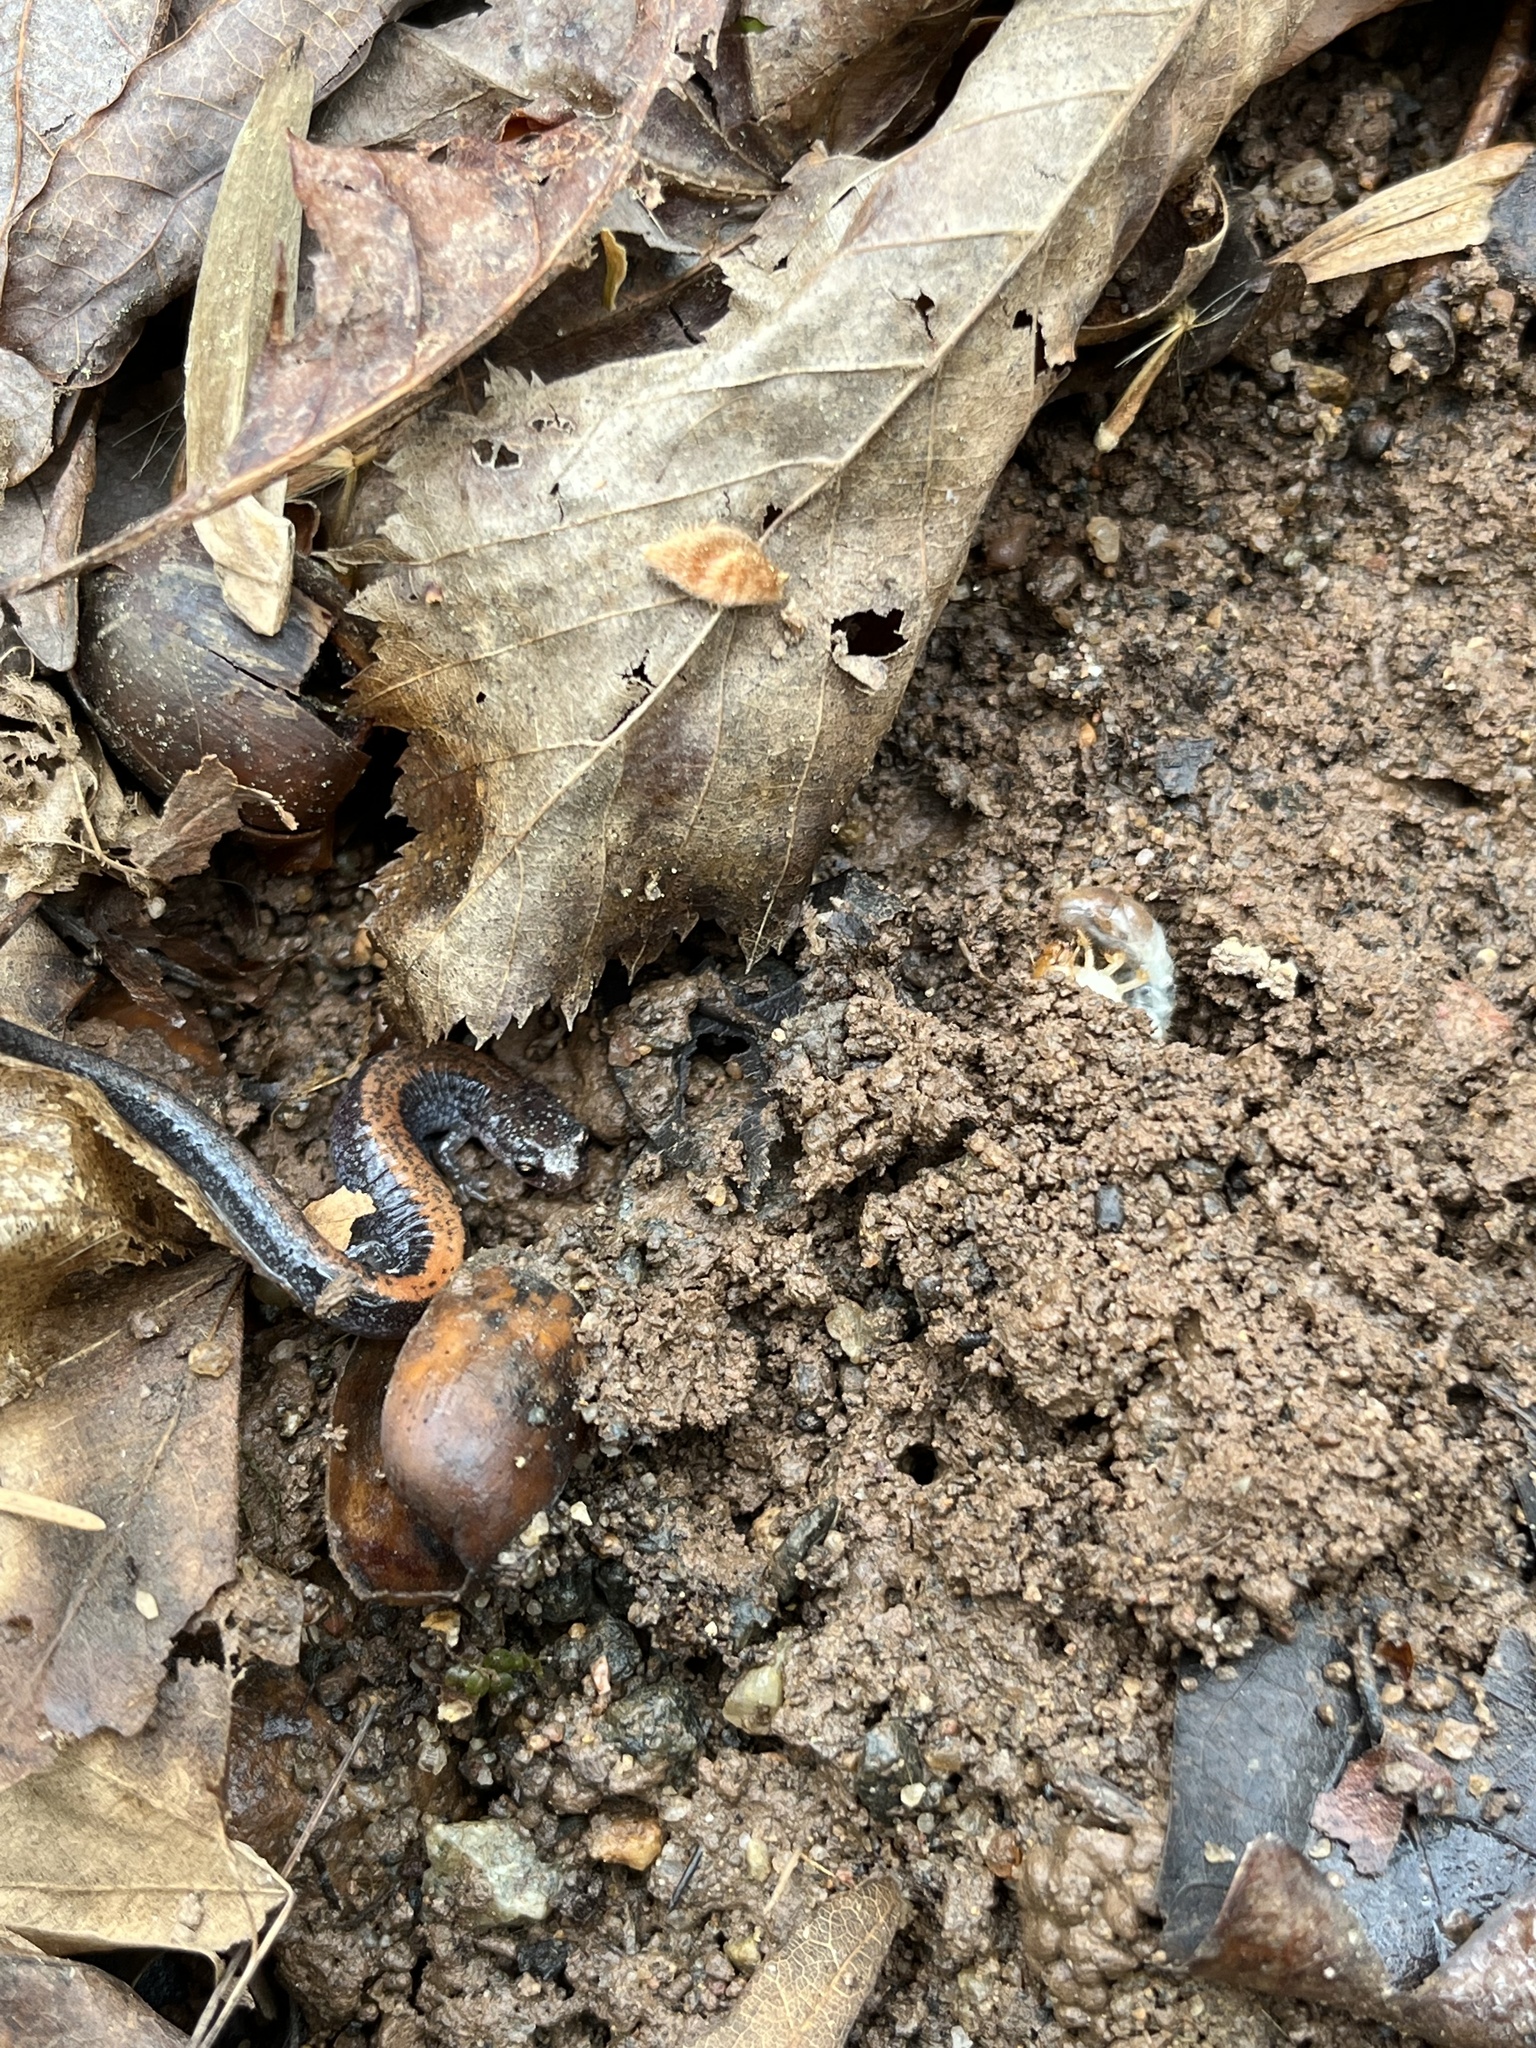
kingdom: Animalia
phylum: Chordata
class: Amphibia
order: Caudata
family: Plethodontidae
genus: Plethodon
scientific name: Plethodon cinereus
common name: Redback salamander
